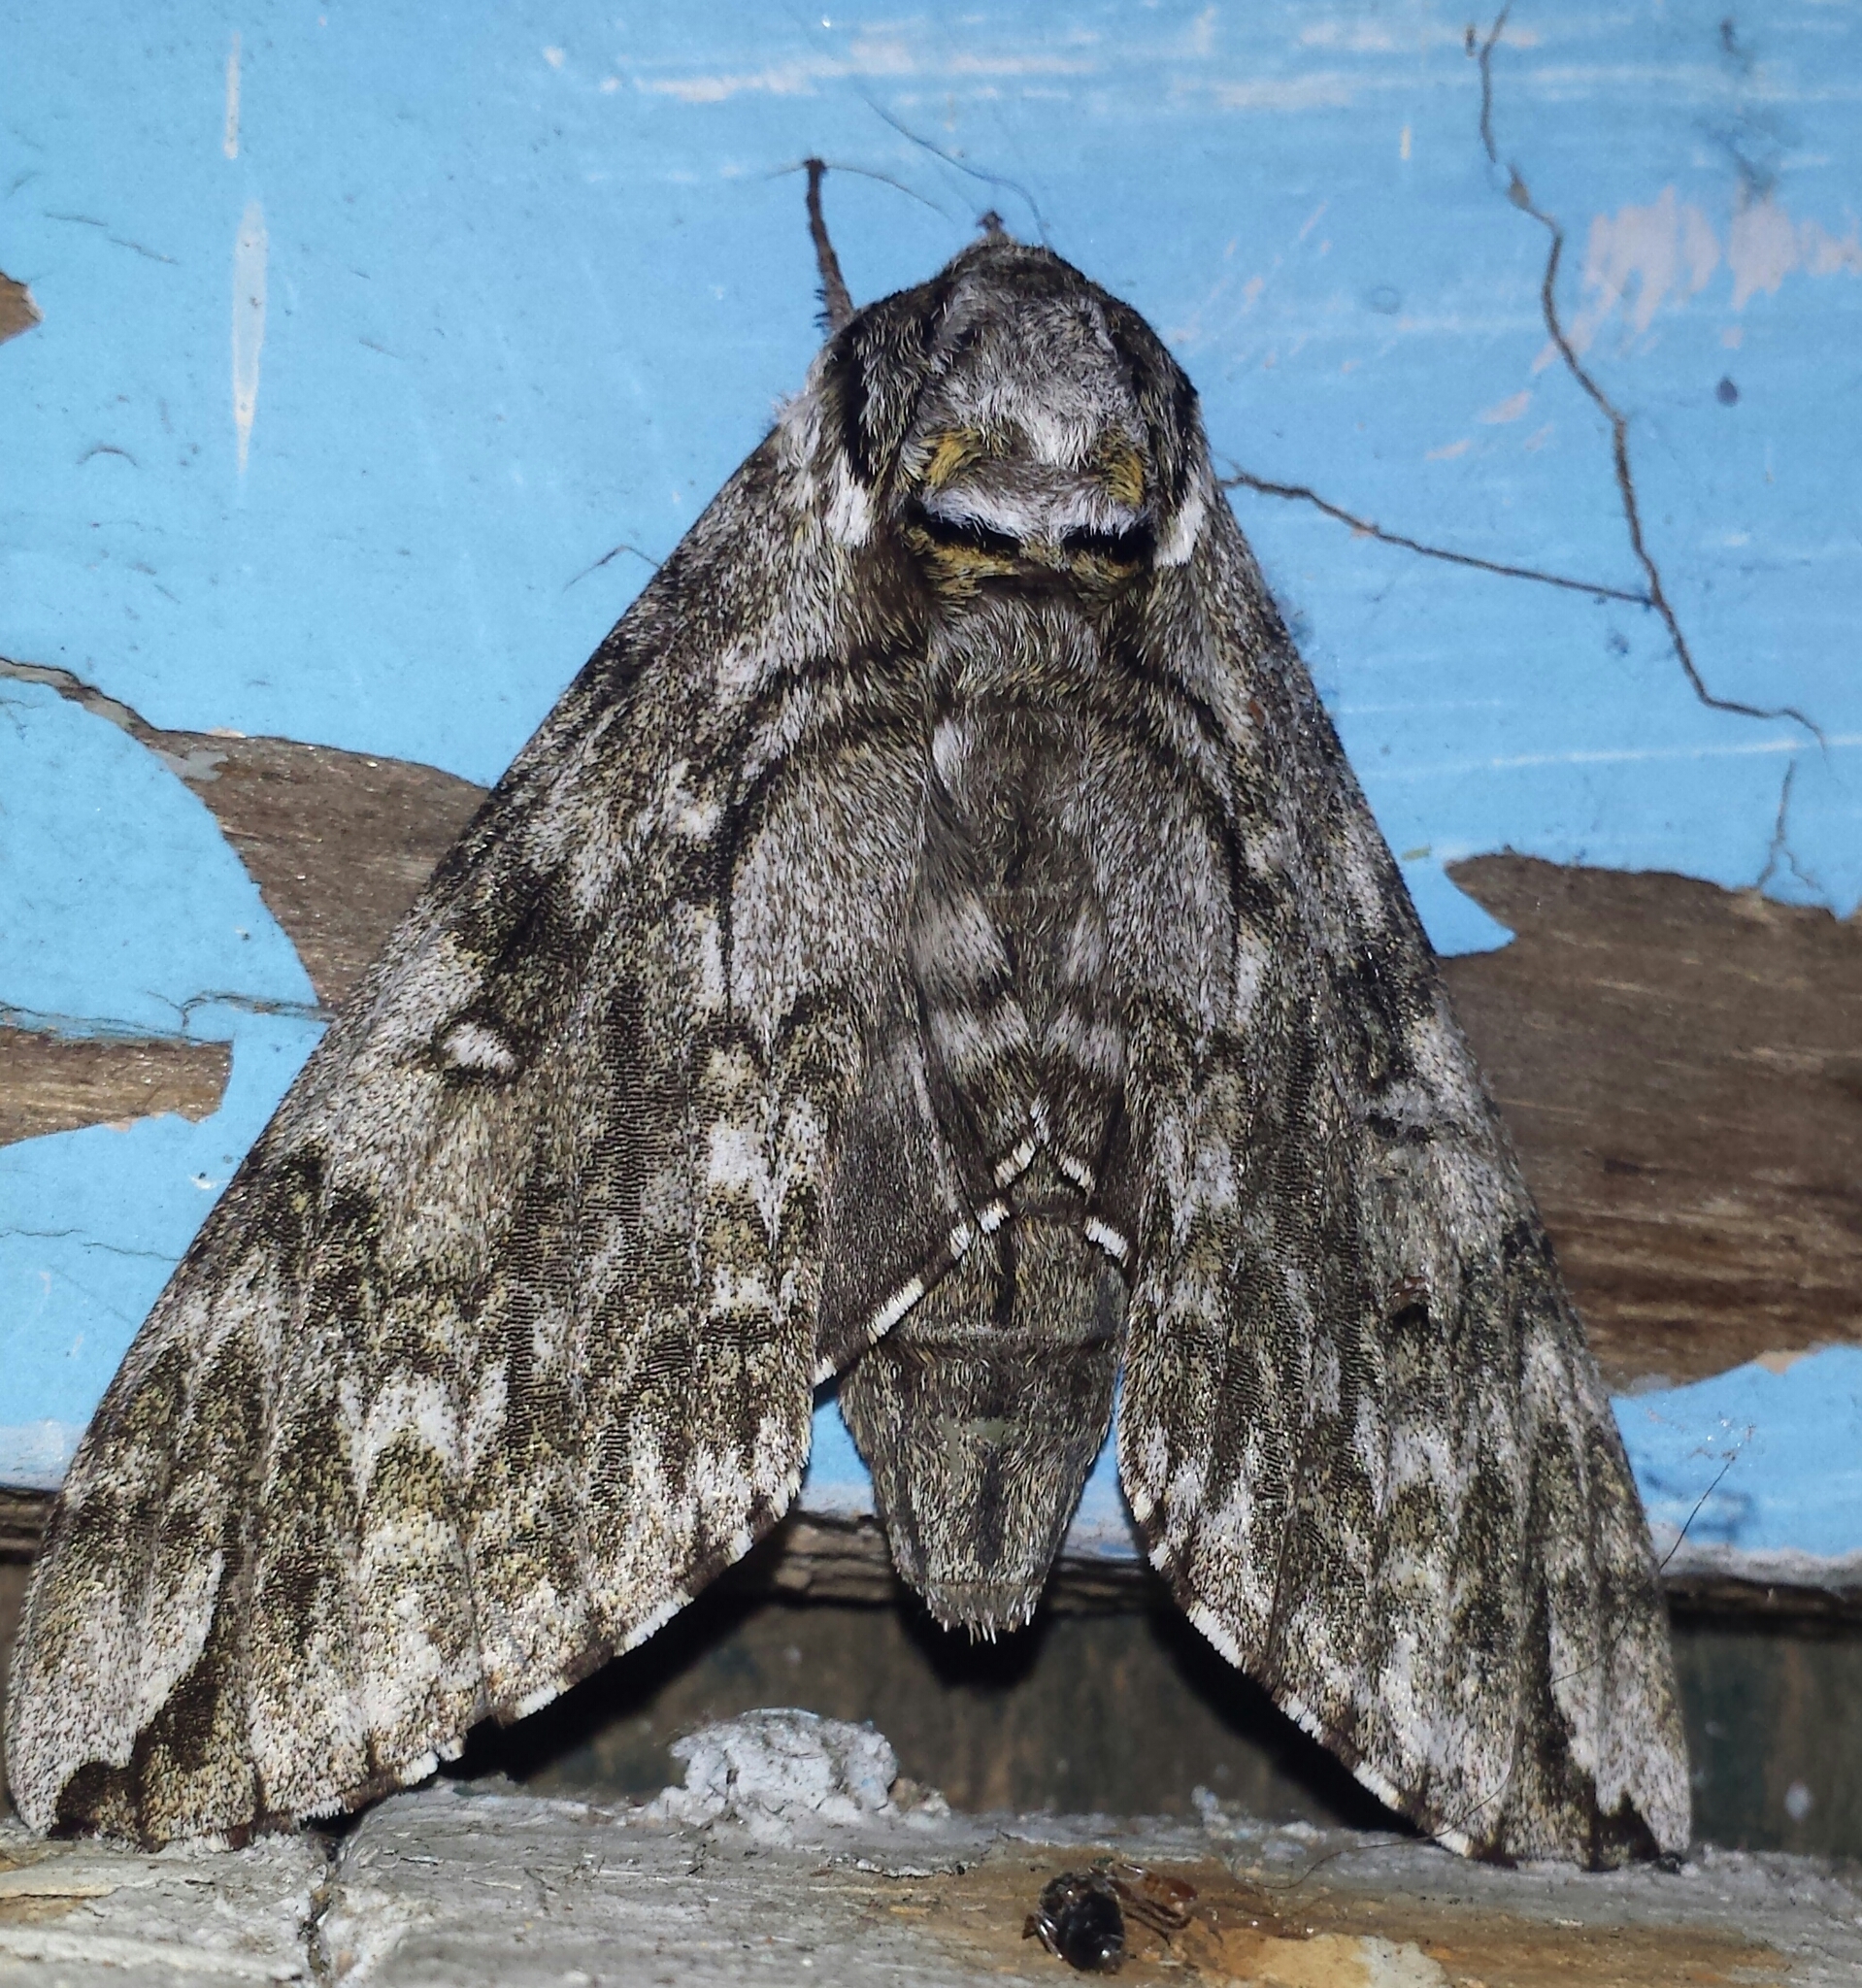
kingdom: Animalia
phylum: Arthropoda
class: Insecta
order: Lepidoptera
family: Sphingidae
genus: Ceratomia
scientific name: Ceratomia undulosa
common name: Waved sphinx
